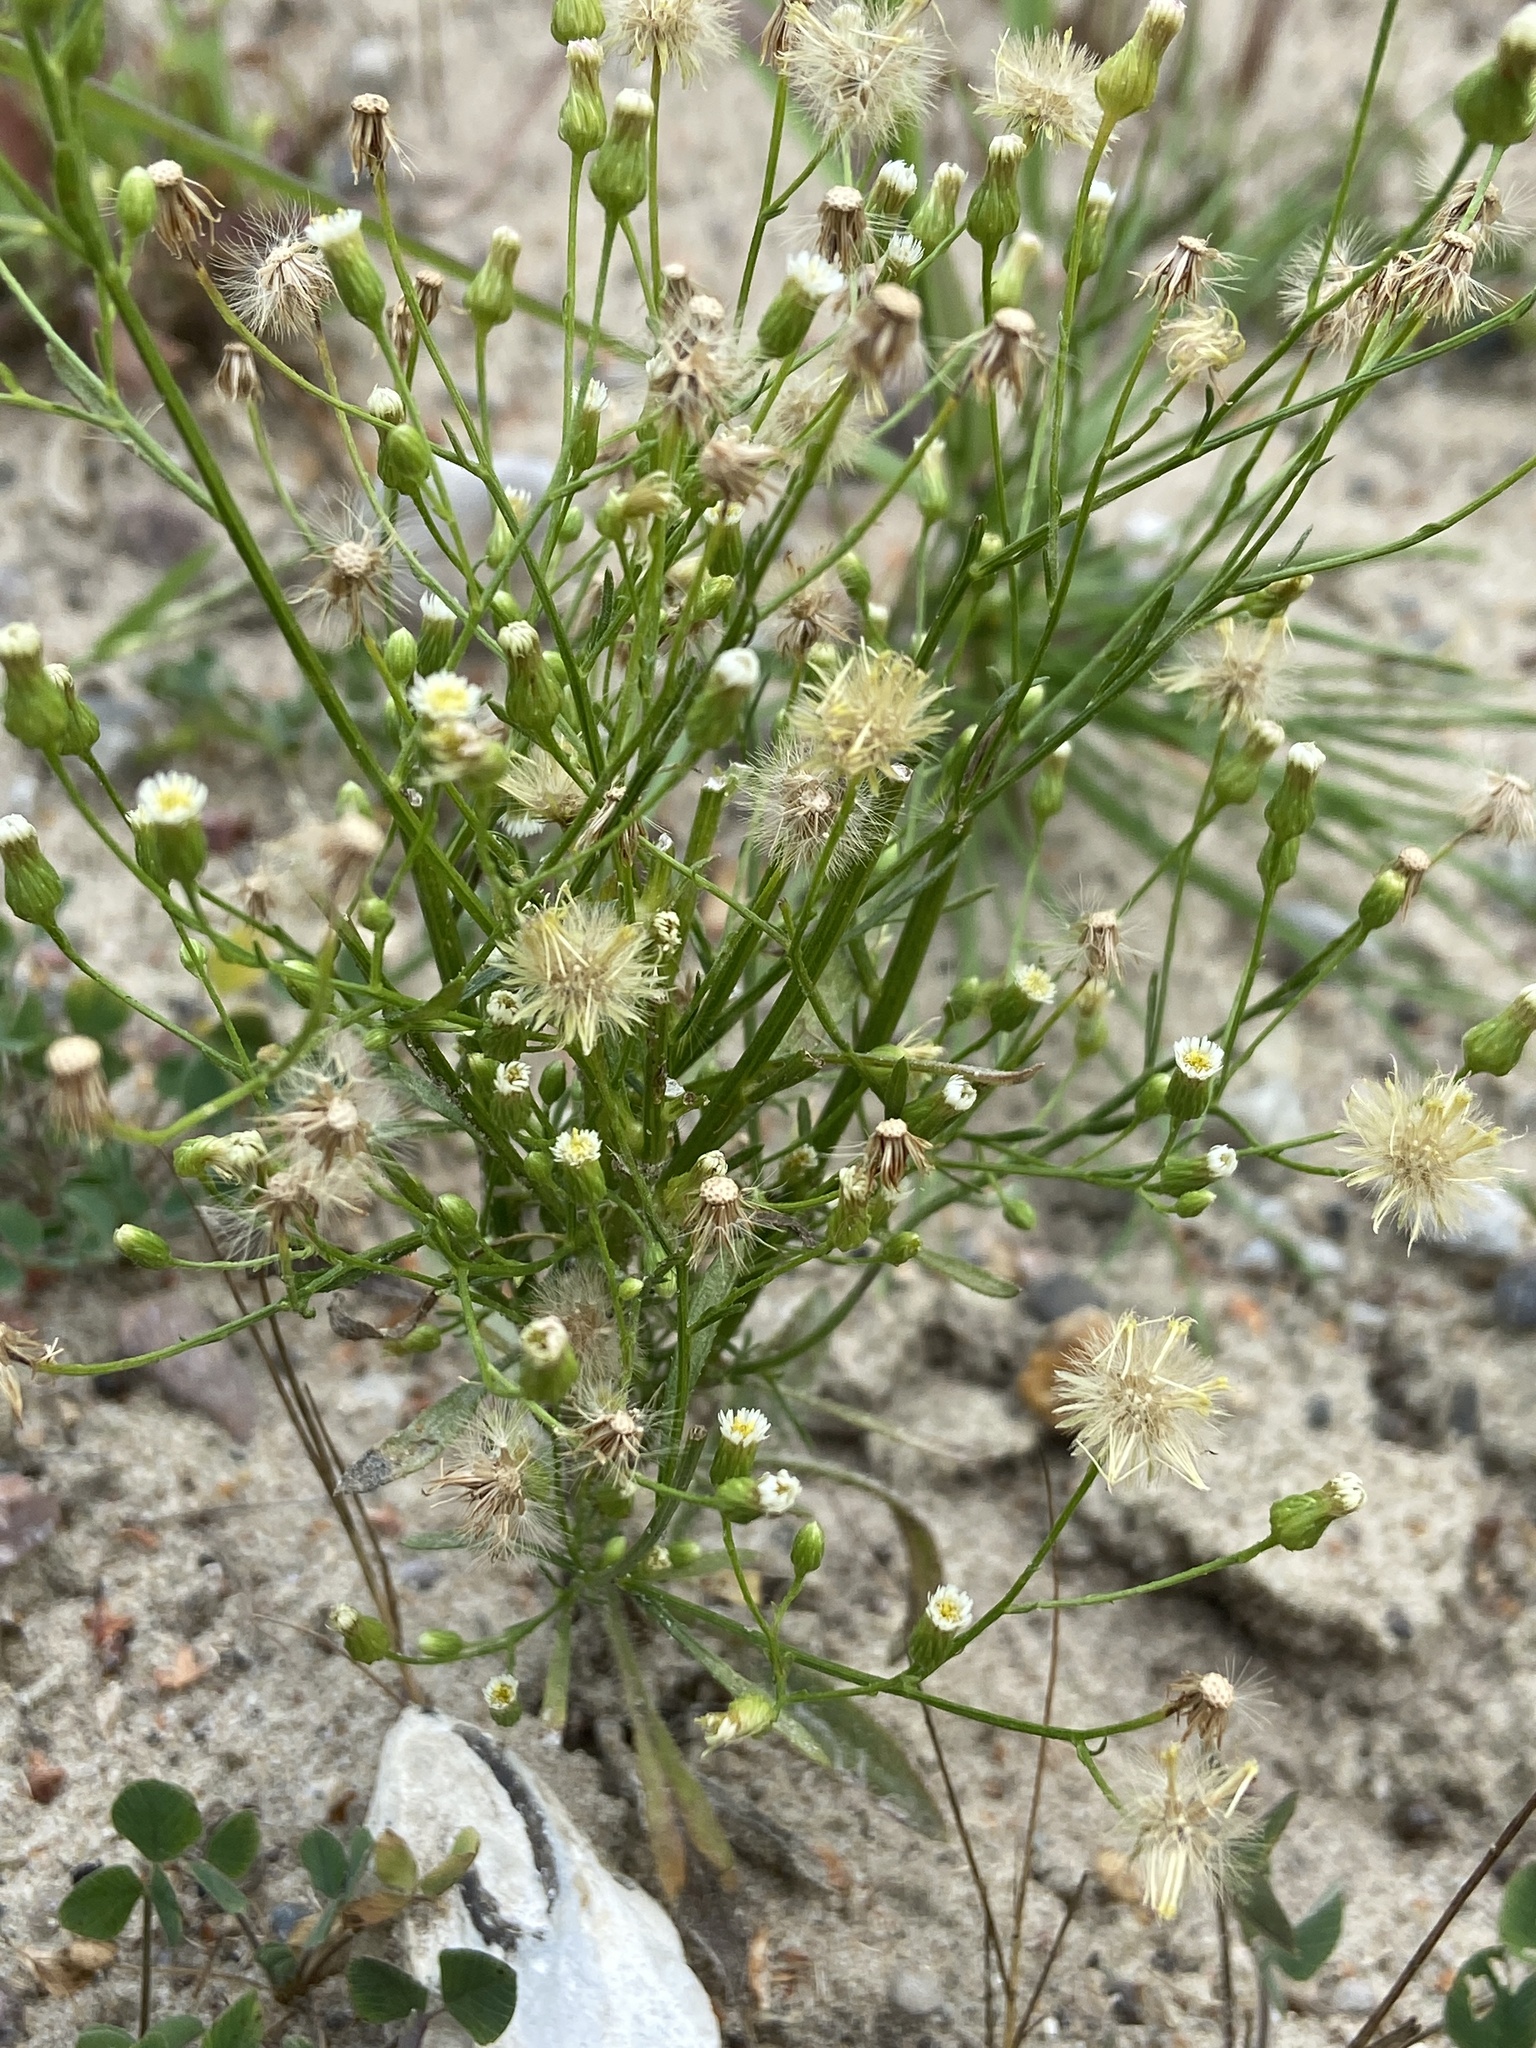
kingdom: Plantae
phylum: Tracheophyta
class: Magnoliopsida
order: Asterales
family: Asteraceae
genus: Erigeron
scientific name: Erigeron canadensis
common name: Canadian fleabane
